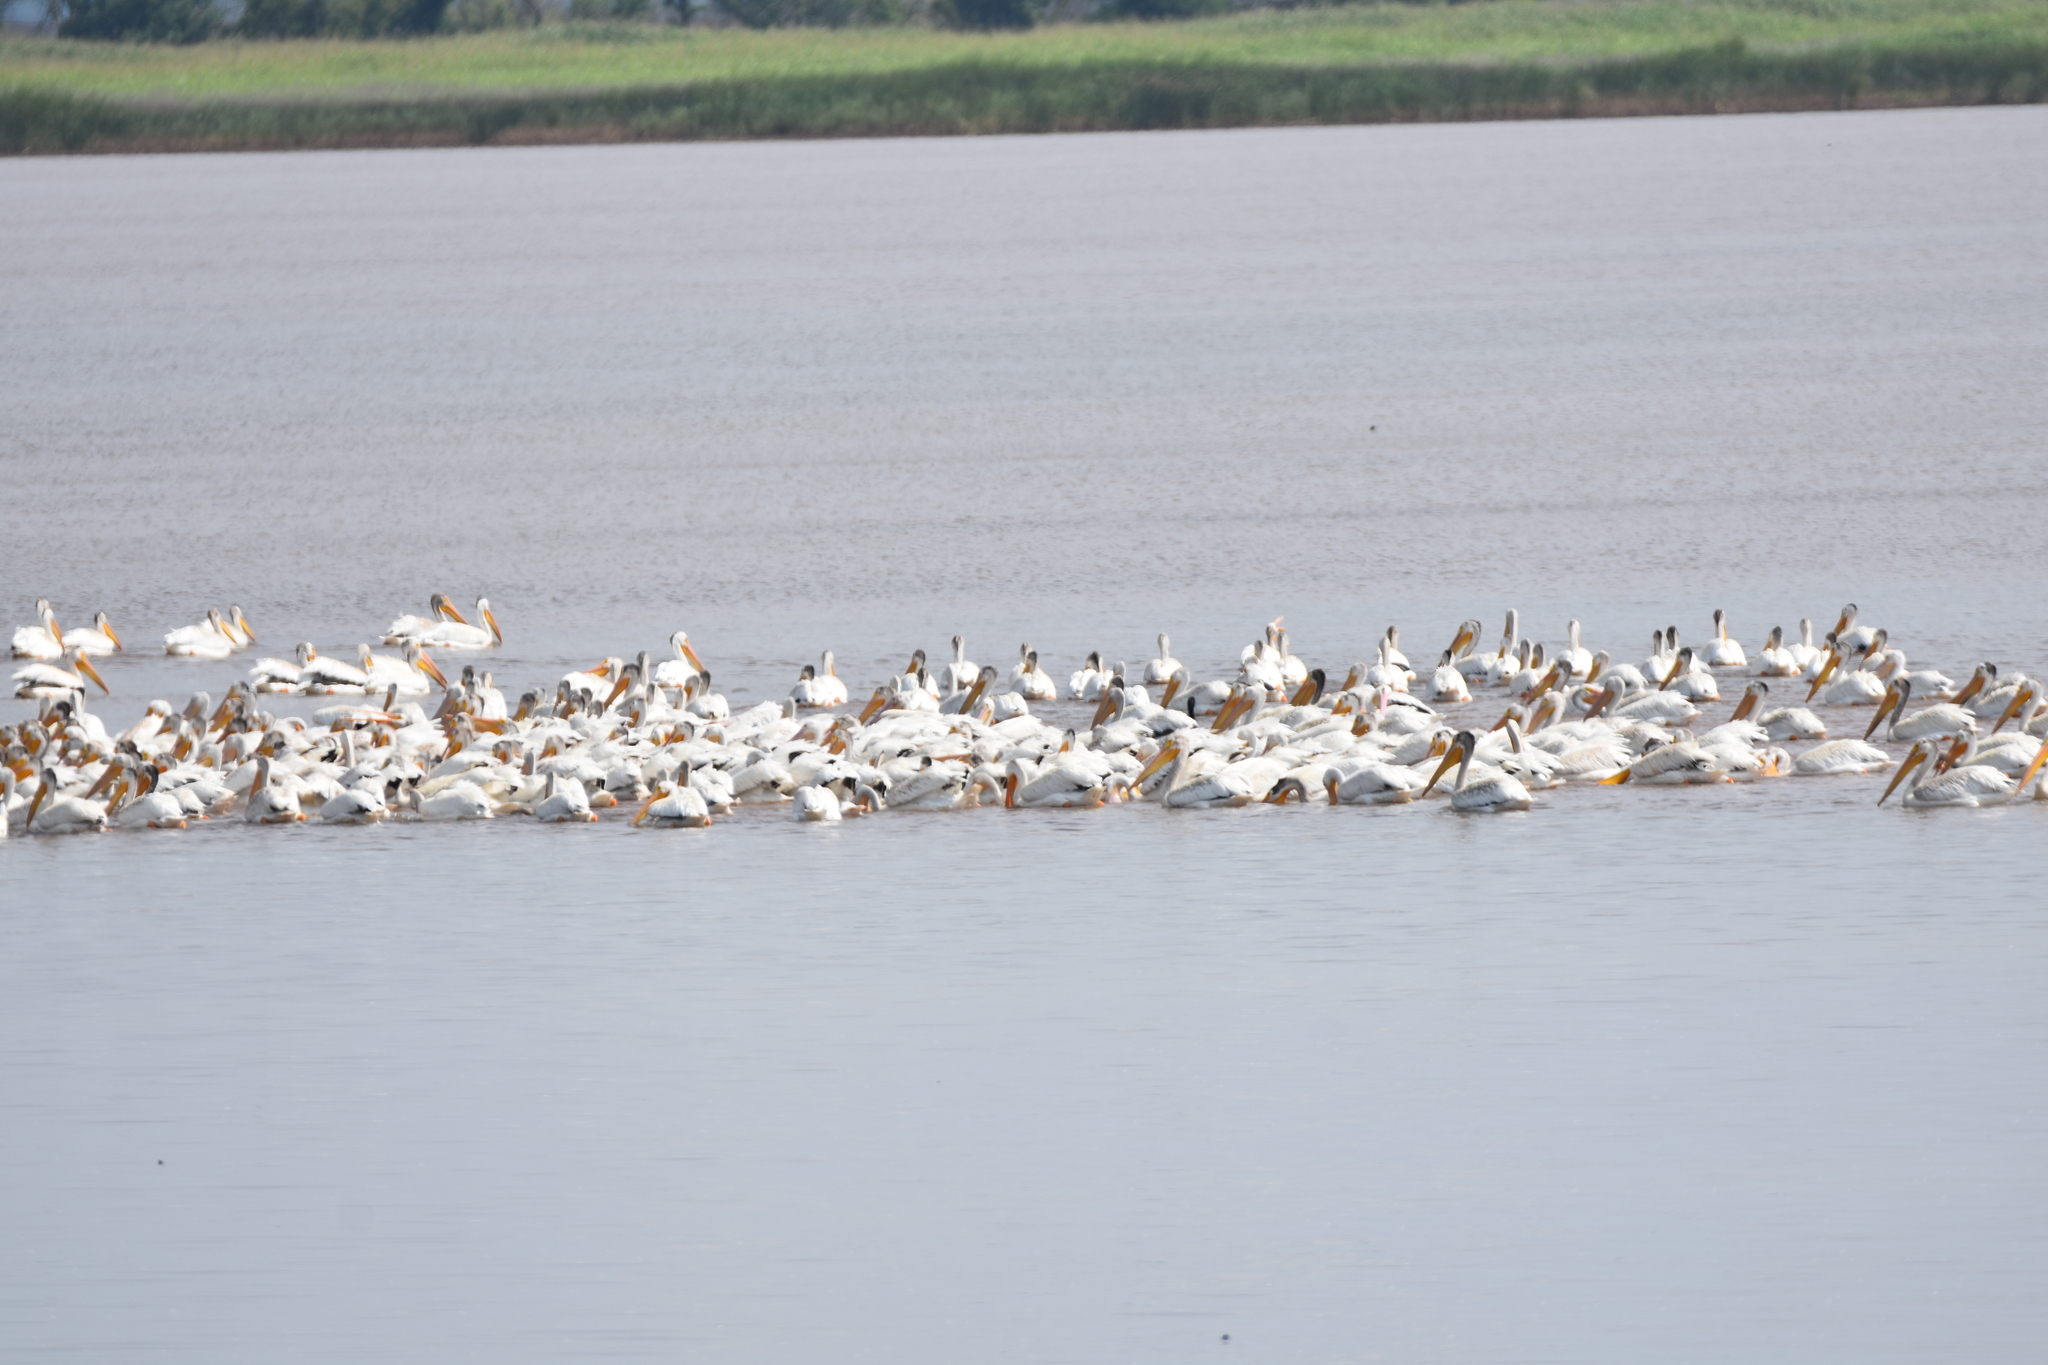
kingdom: Animalia
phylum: Chordata
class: Aves
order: Pelecaniformes
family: Pelecanidae
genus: Pelecanus
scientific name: Pelecanus erythrorhynchos
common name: American white pelican
